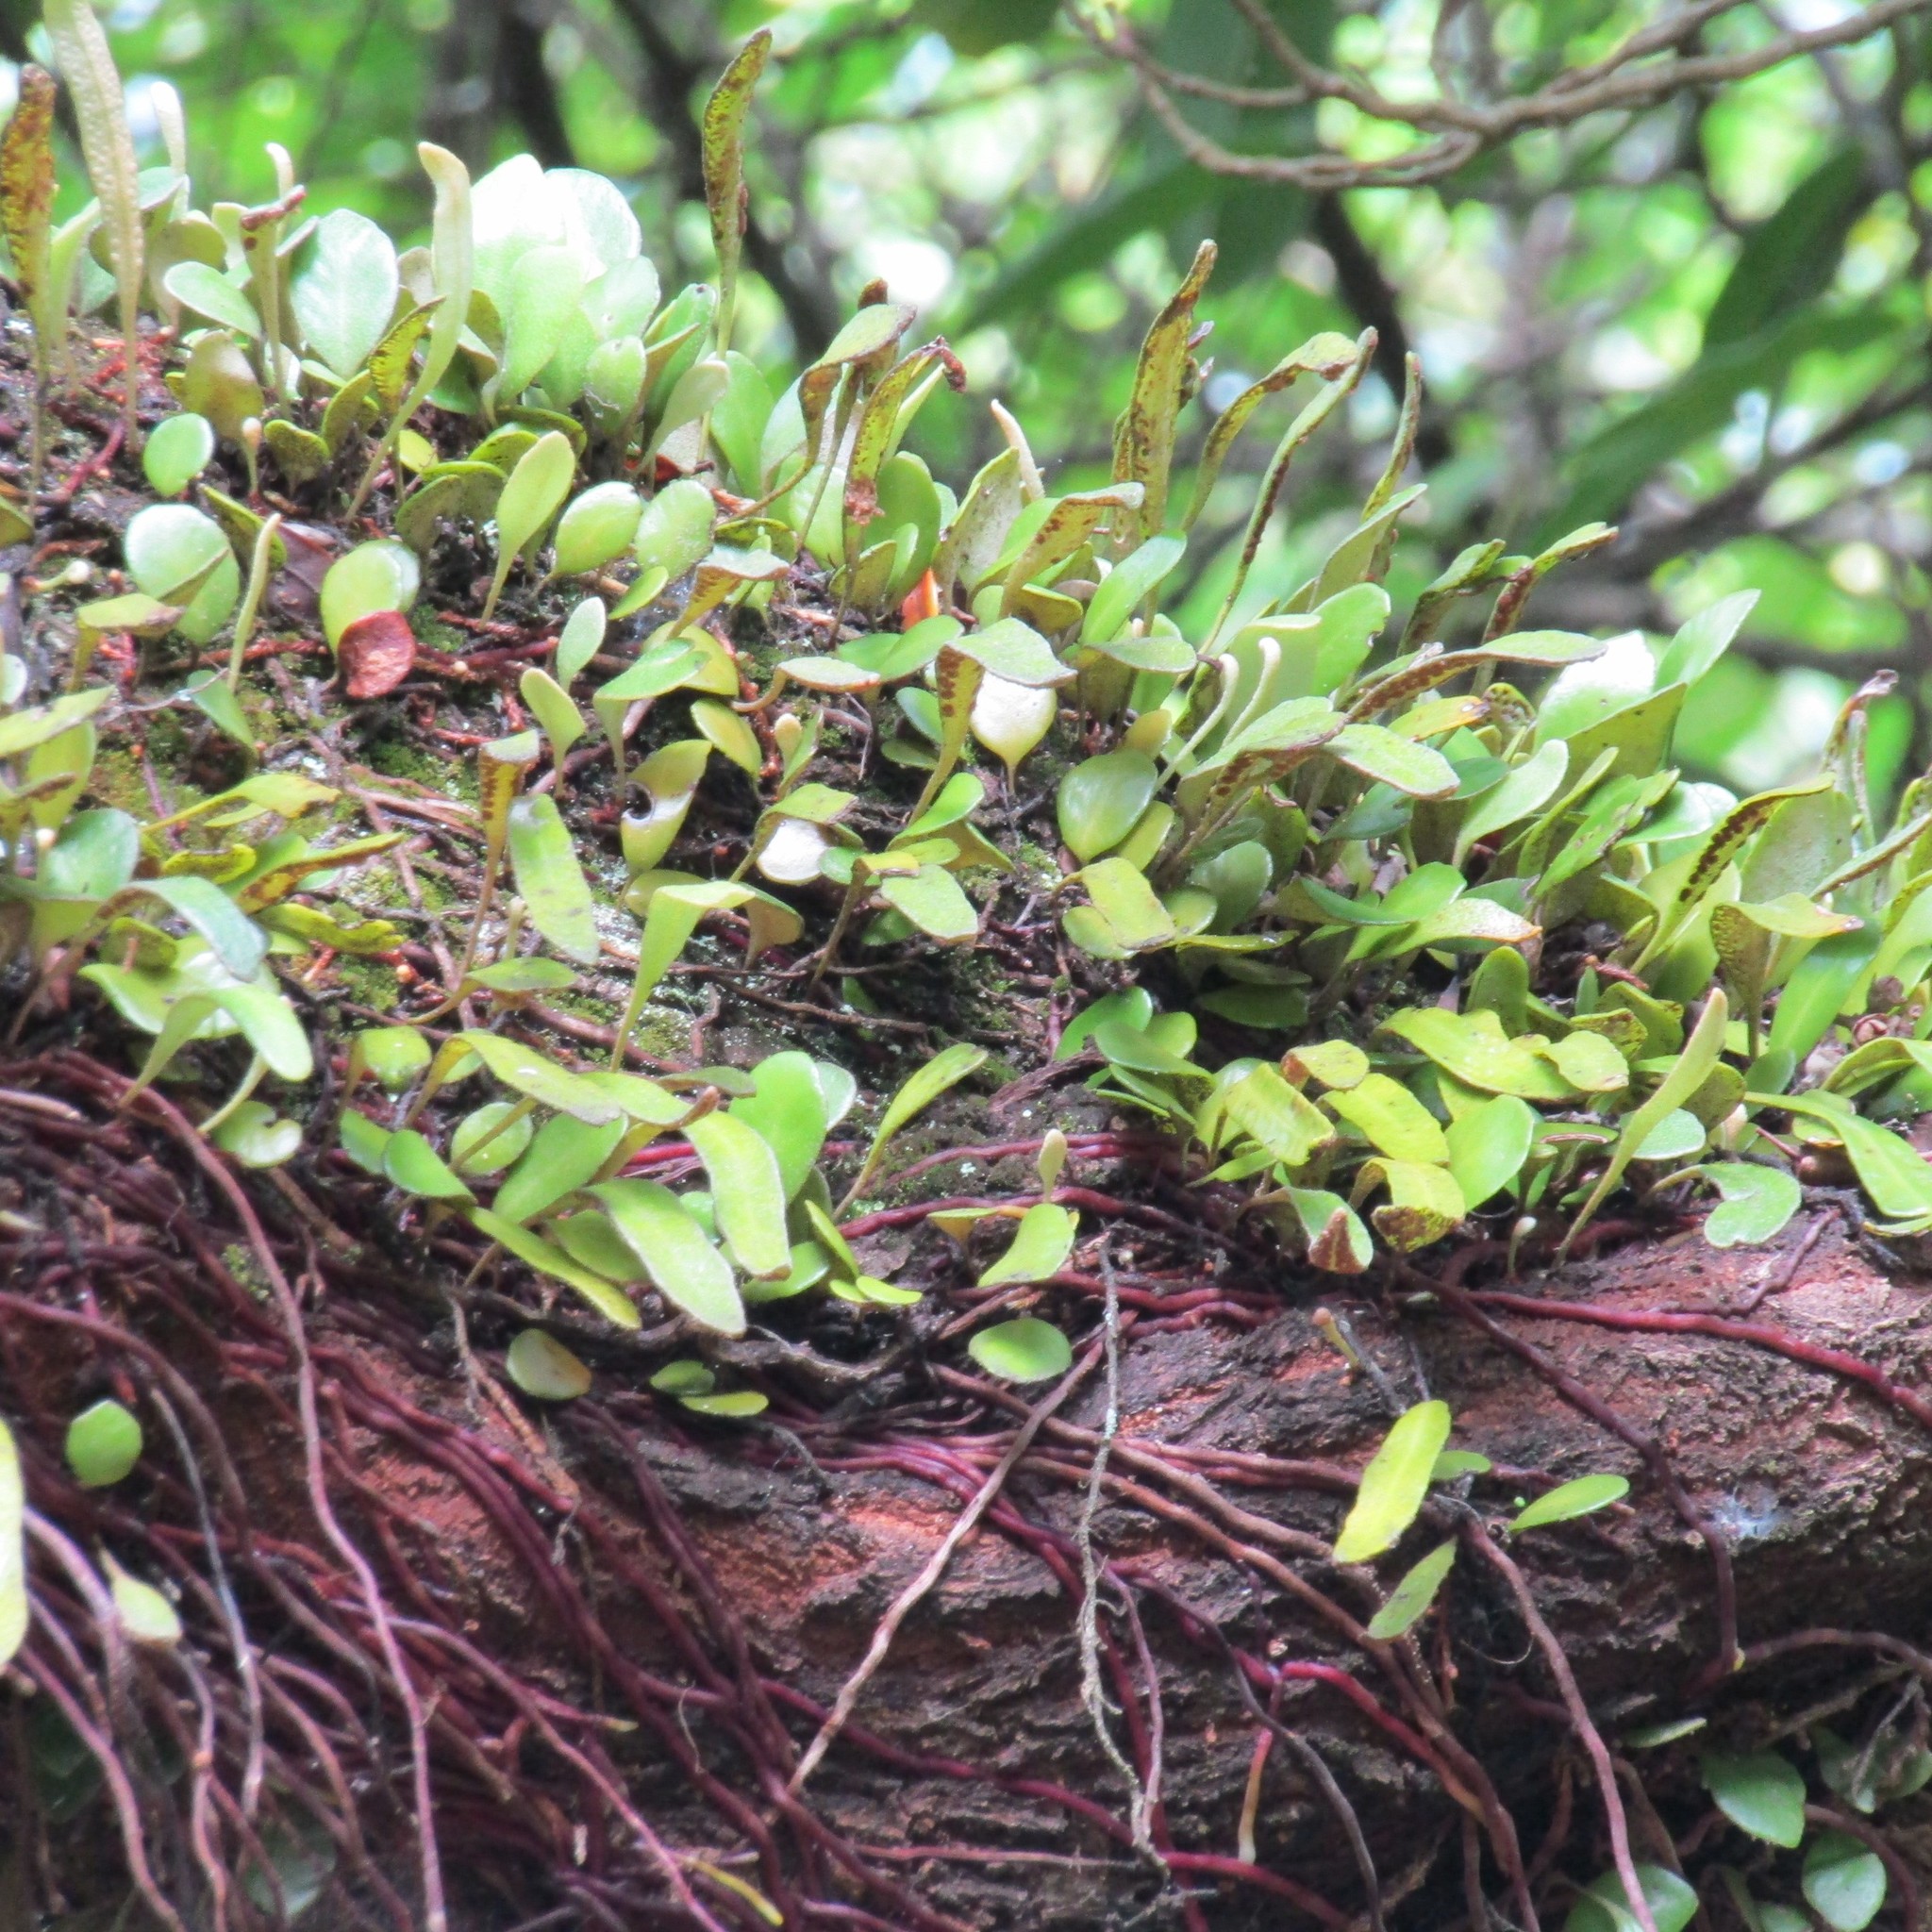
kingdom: Plantae
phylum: Tracheophyta
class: Polypodiopsida
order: Polypodiales
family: Polypodiaceae
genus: Pyrrosia
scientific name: Pyrrosia eleagnifolia
